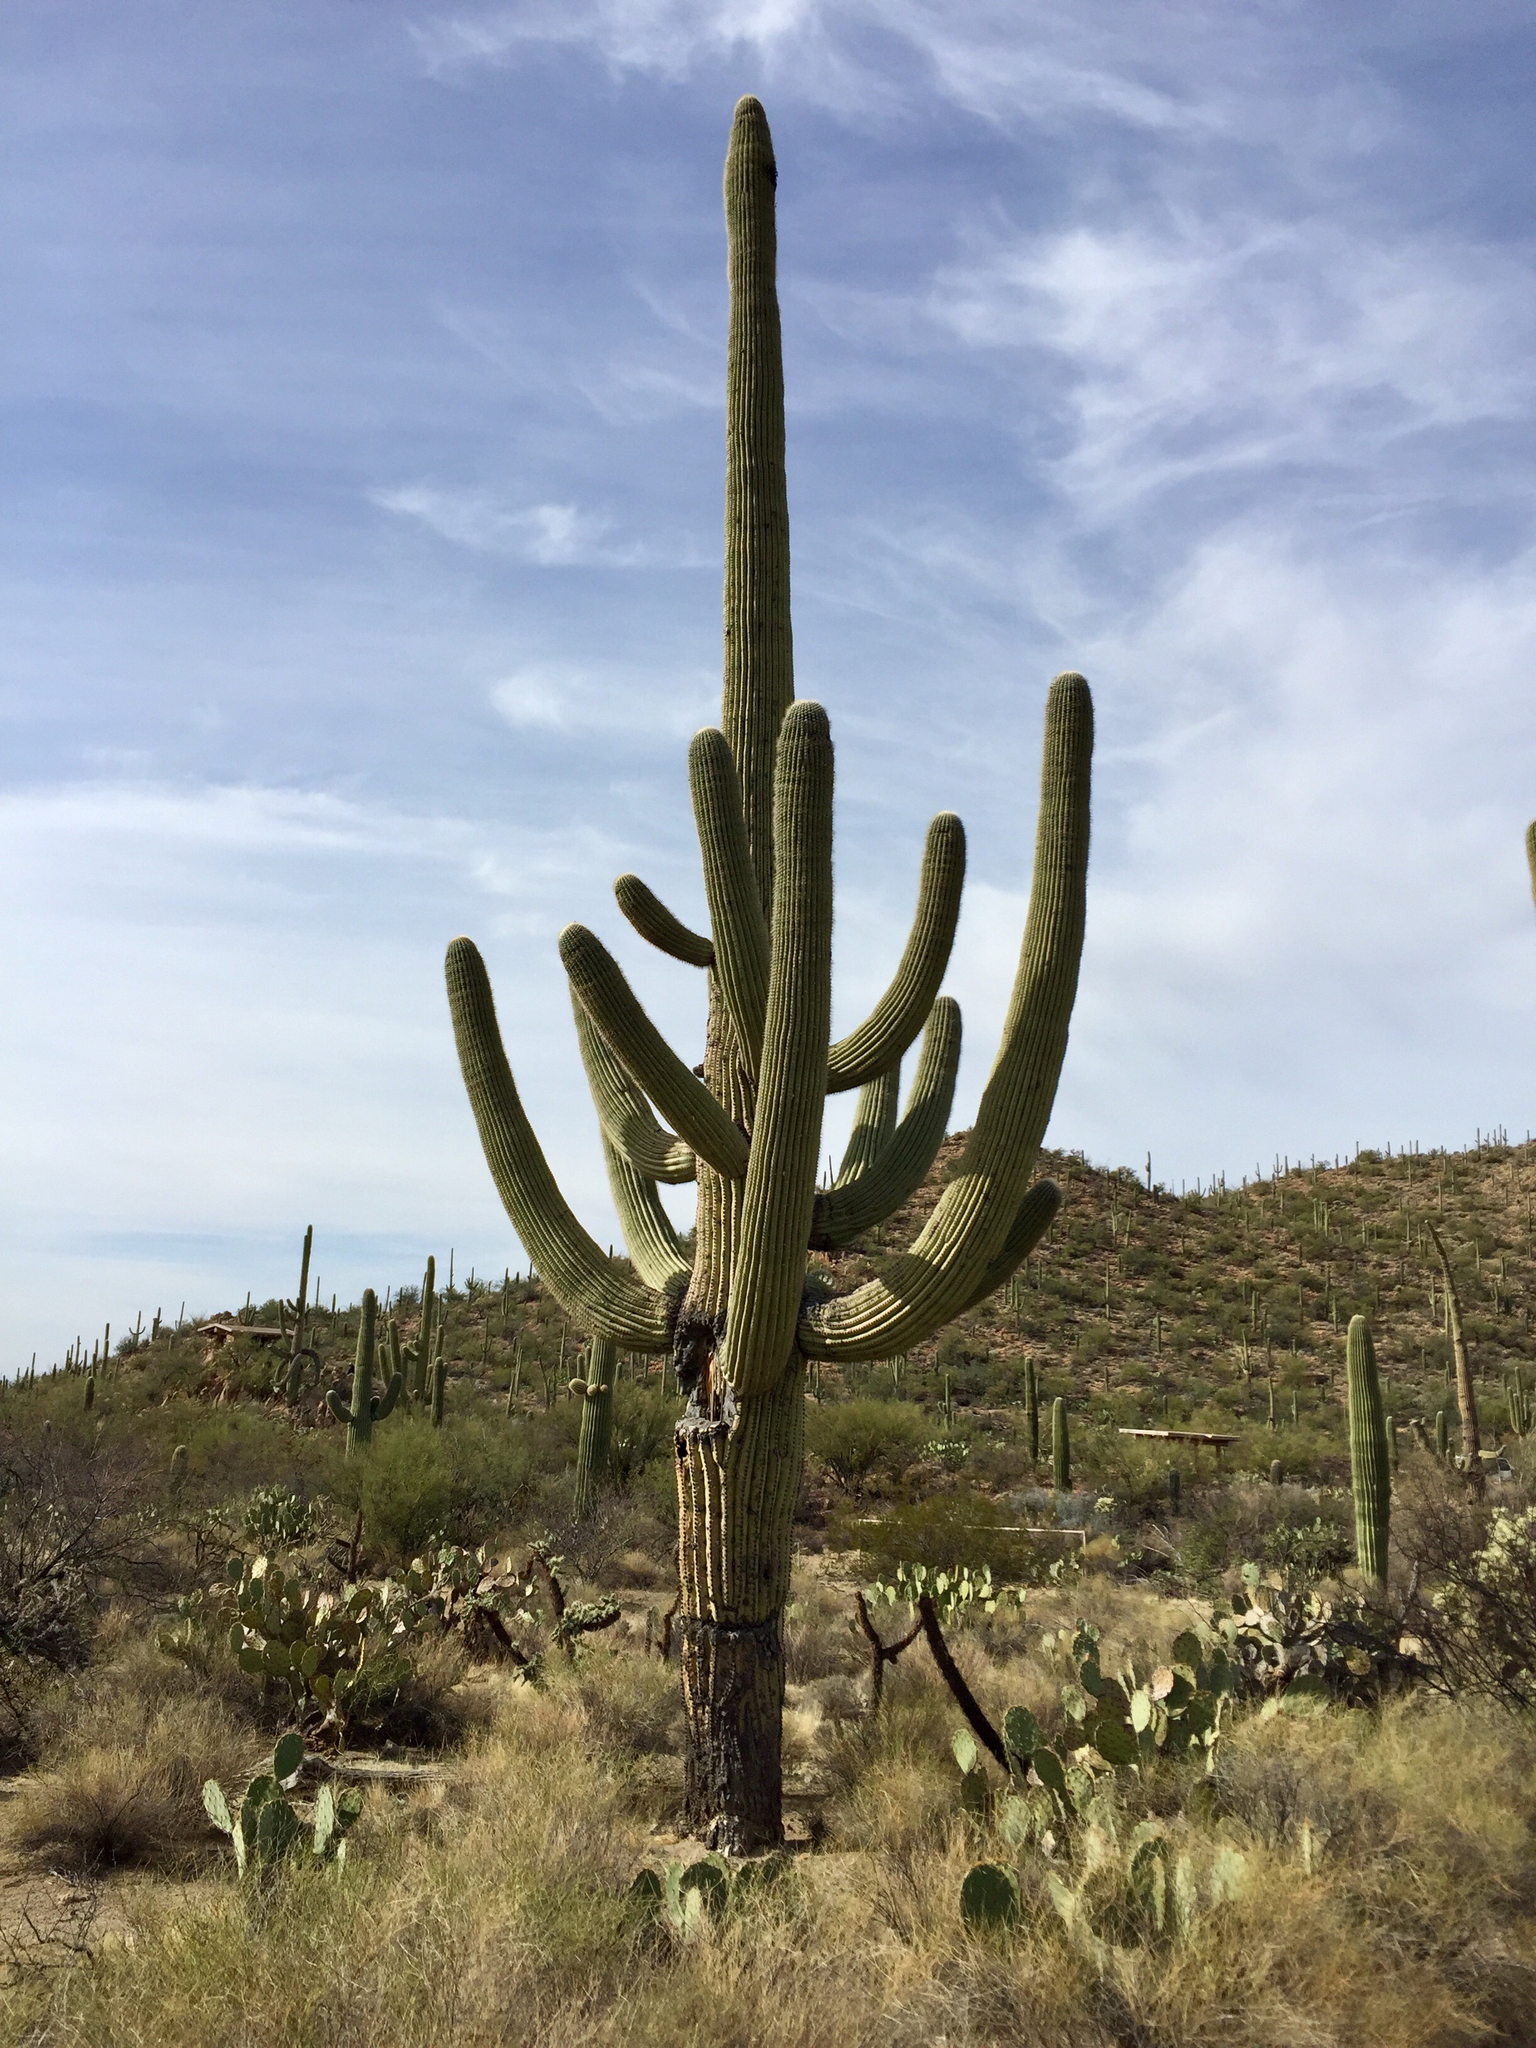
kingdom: Plantae
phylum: Tracheophyta
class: Magnoliopsida
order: Caryophyllales
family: Cactaceae
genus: Carnegiea
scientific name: Carnegiea gigantea
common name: Saguaro
